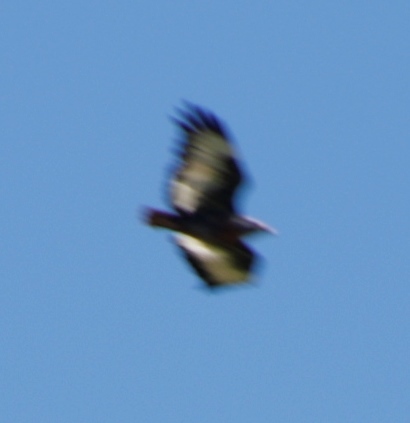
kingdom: Animalia
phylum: Chordata
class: Aves
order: Accipitriformes
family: Accipitridae
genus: Buteo
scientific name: Buteo rufofuscus
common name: Jackal buzzard
